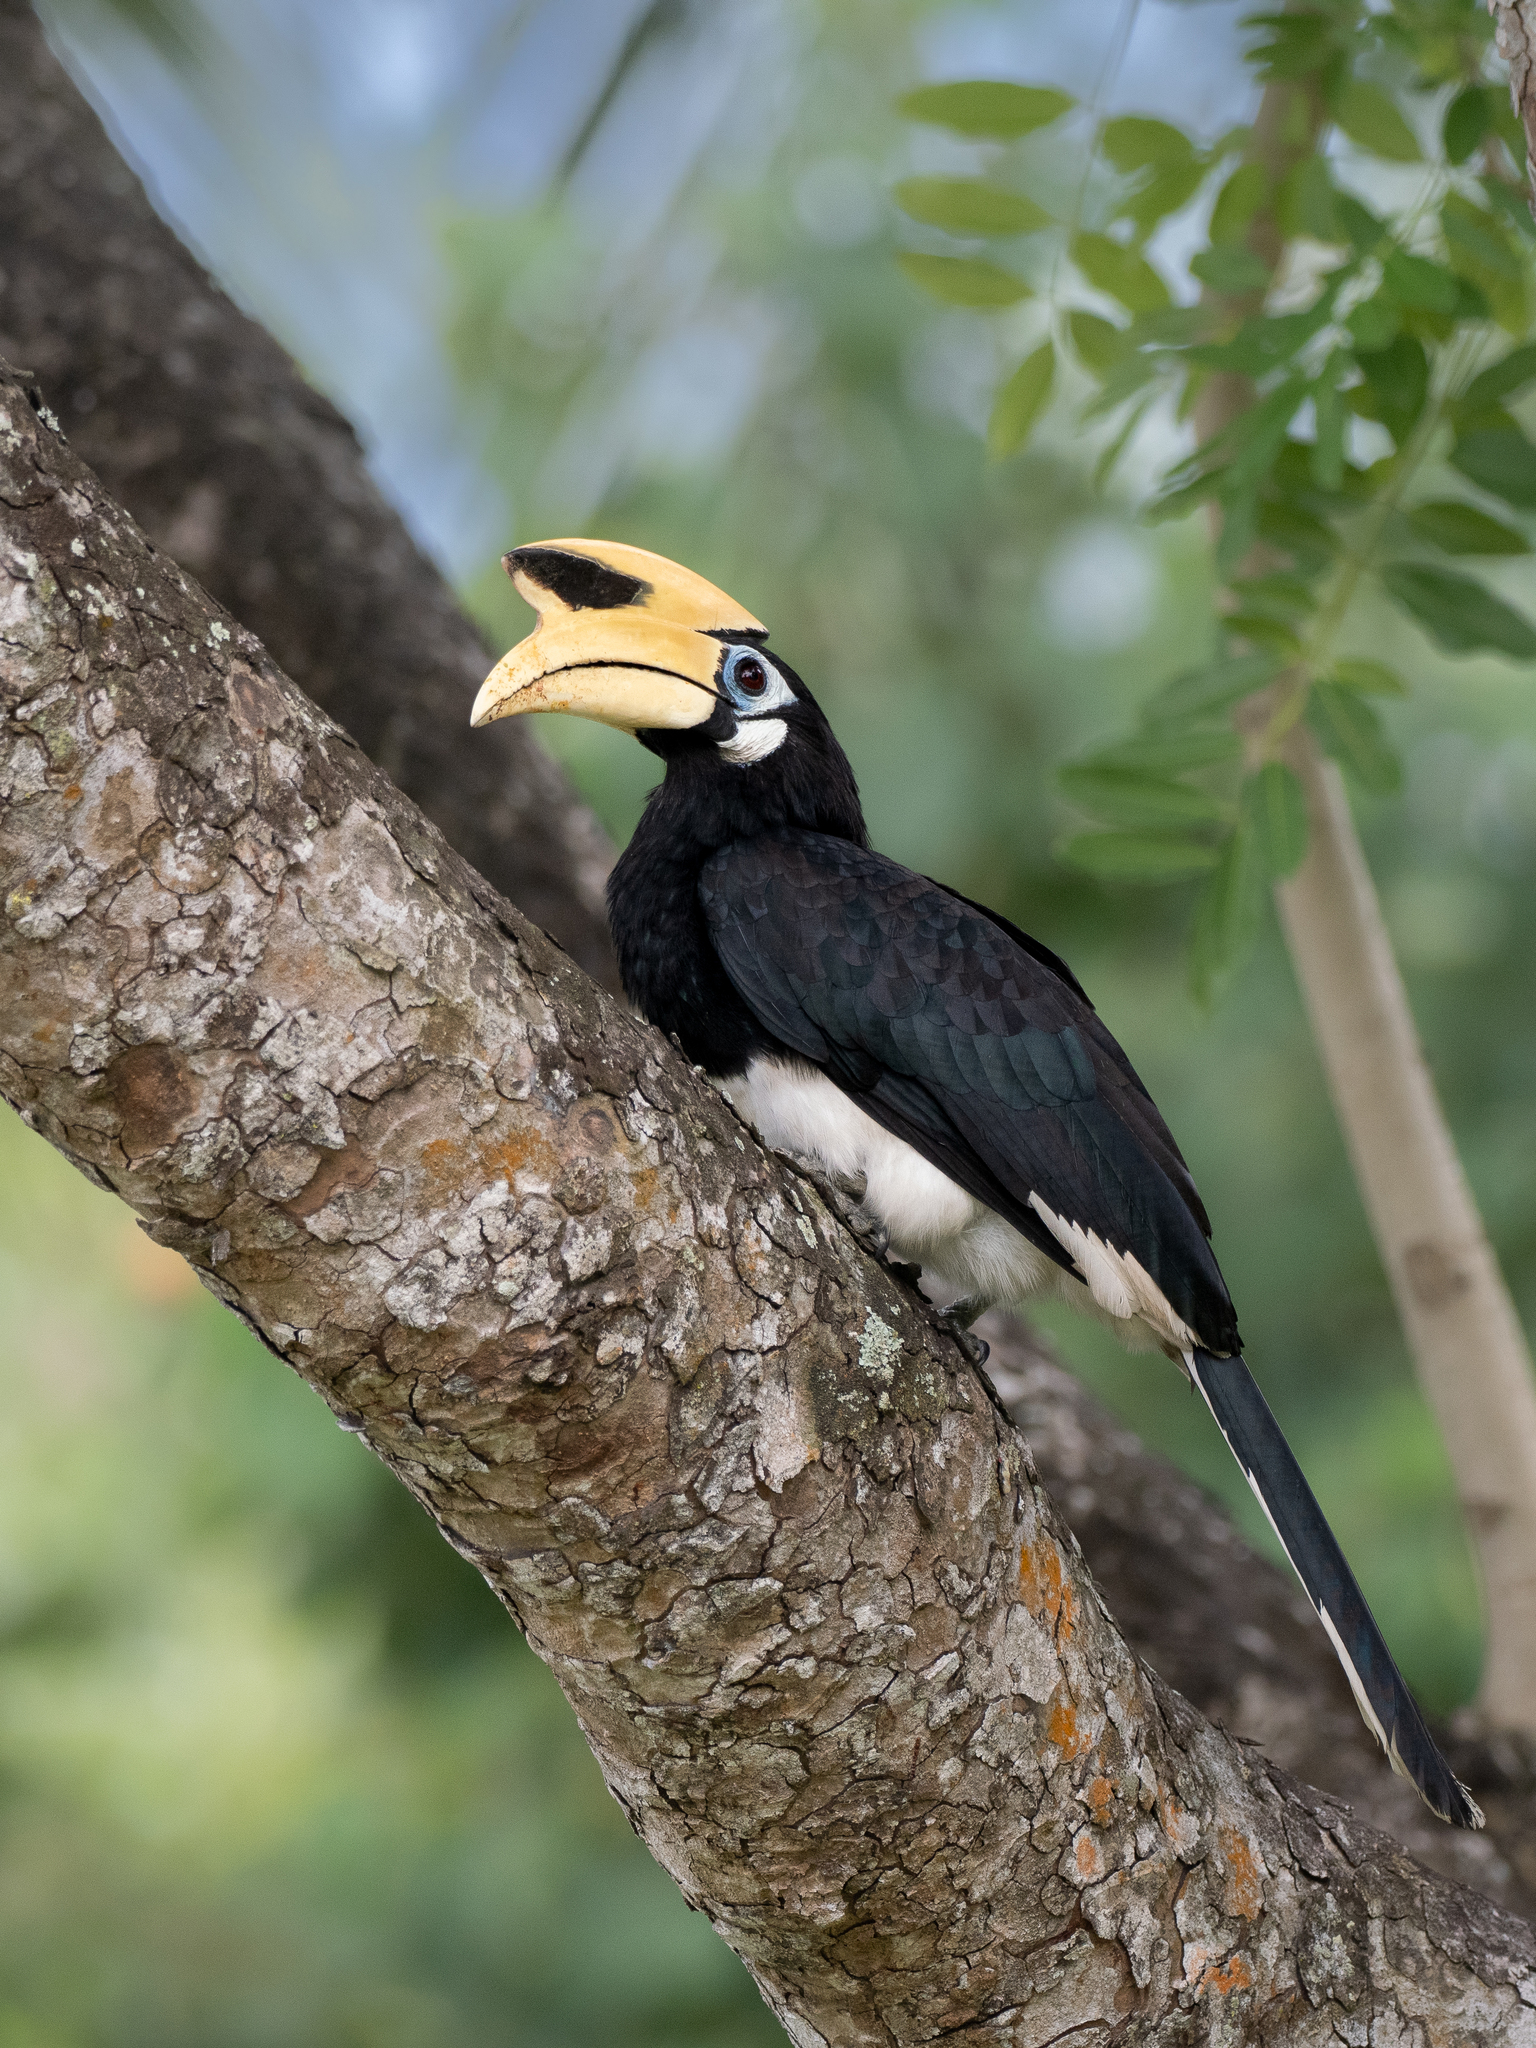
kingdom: Animalia
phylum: Chordata
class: Aves
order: Bucerotiformes
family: Bucerotidae
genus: Anthracoceros
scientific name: Anthracoceros albirostris
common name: Oriental pied-hornbill
